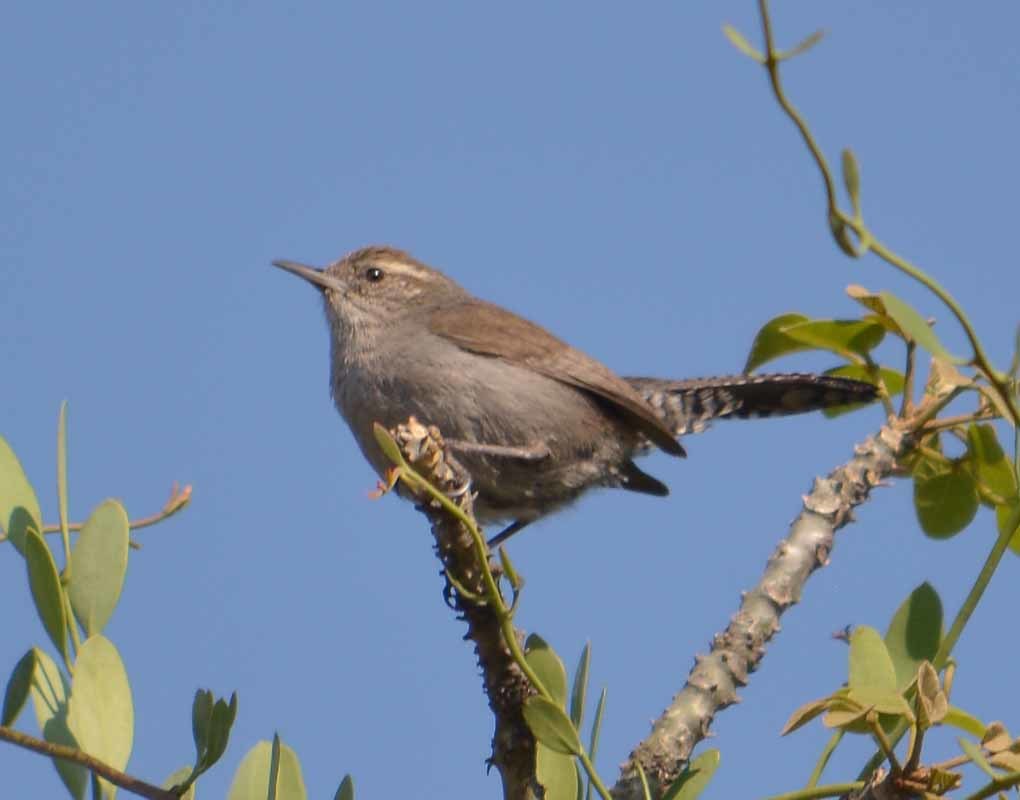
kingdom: Animalia
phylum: Chordata
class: Aves
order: Passeriformes
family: Troglodytidae
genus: Thryomanes
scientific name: Thryomanes bewickii
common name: Bewick's wren
